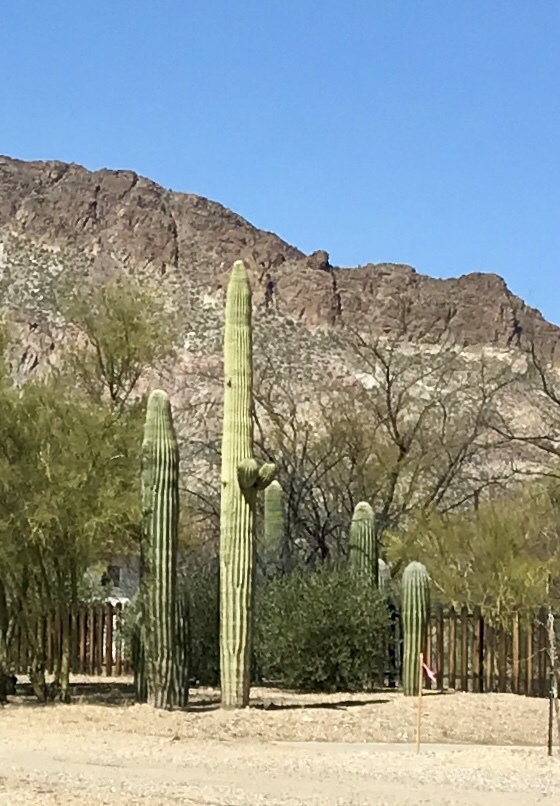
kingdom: Plantae
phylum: Tracheophyta
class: Magnoliopsida
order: Caryophyllales
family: Cactaceae
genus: Carnegiea
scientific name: Carnegiea gigantea
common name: Saguaro
